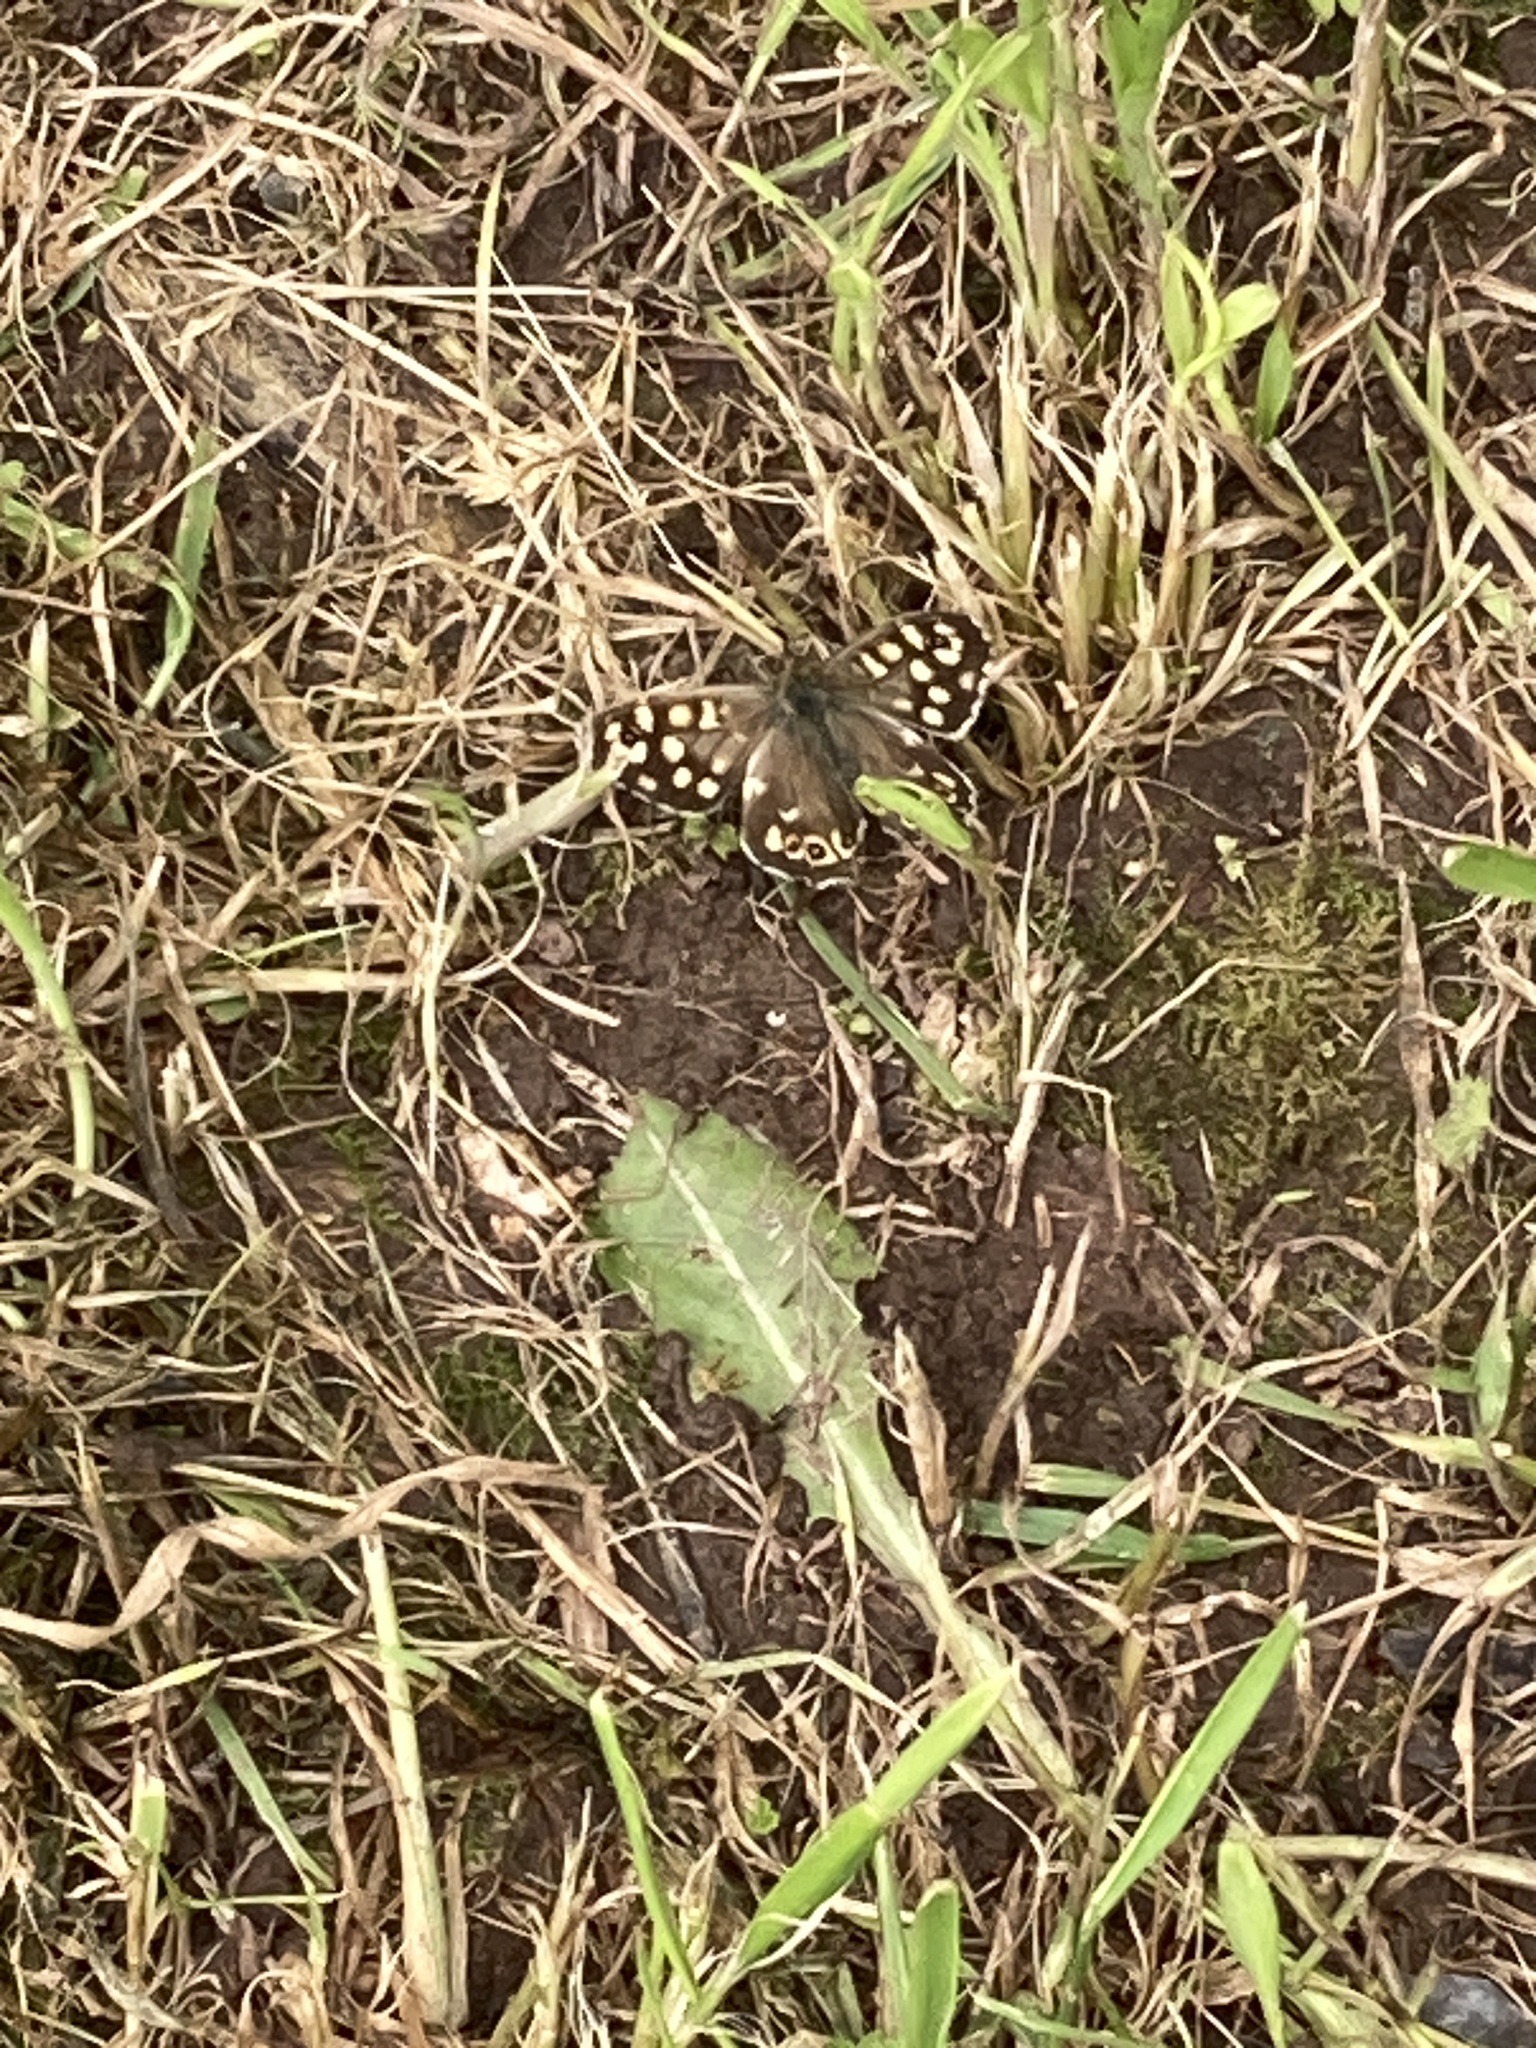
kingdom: Animalia
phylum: Arthropoda
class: Insecta
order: Lepidoptera
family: Nymphalidae
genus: Pararge
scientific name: Pararge aegeria
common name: Speckled wood
